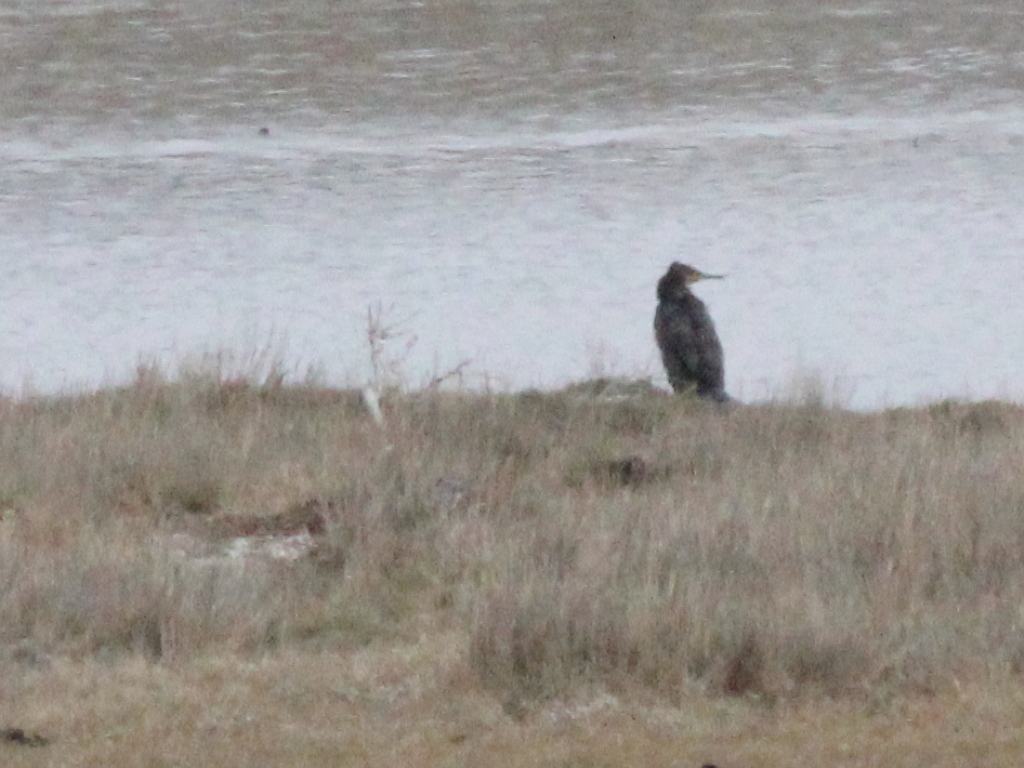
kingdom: Animalia
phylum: Chordata
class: Aves
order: Suliformes
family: Phalacrocoracidae
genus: Phalacrocorax
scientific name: Phalacrocorax carbo
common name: Great cormorant
